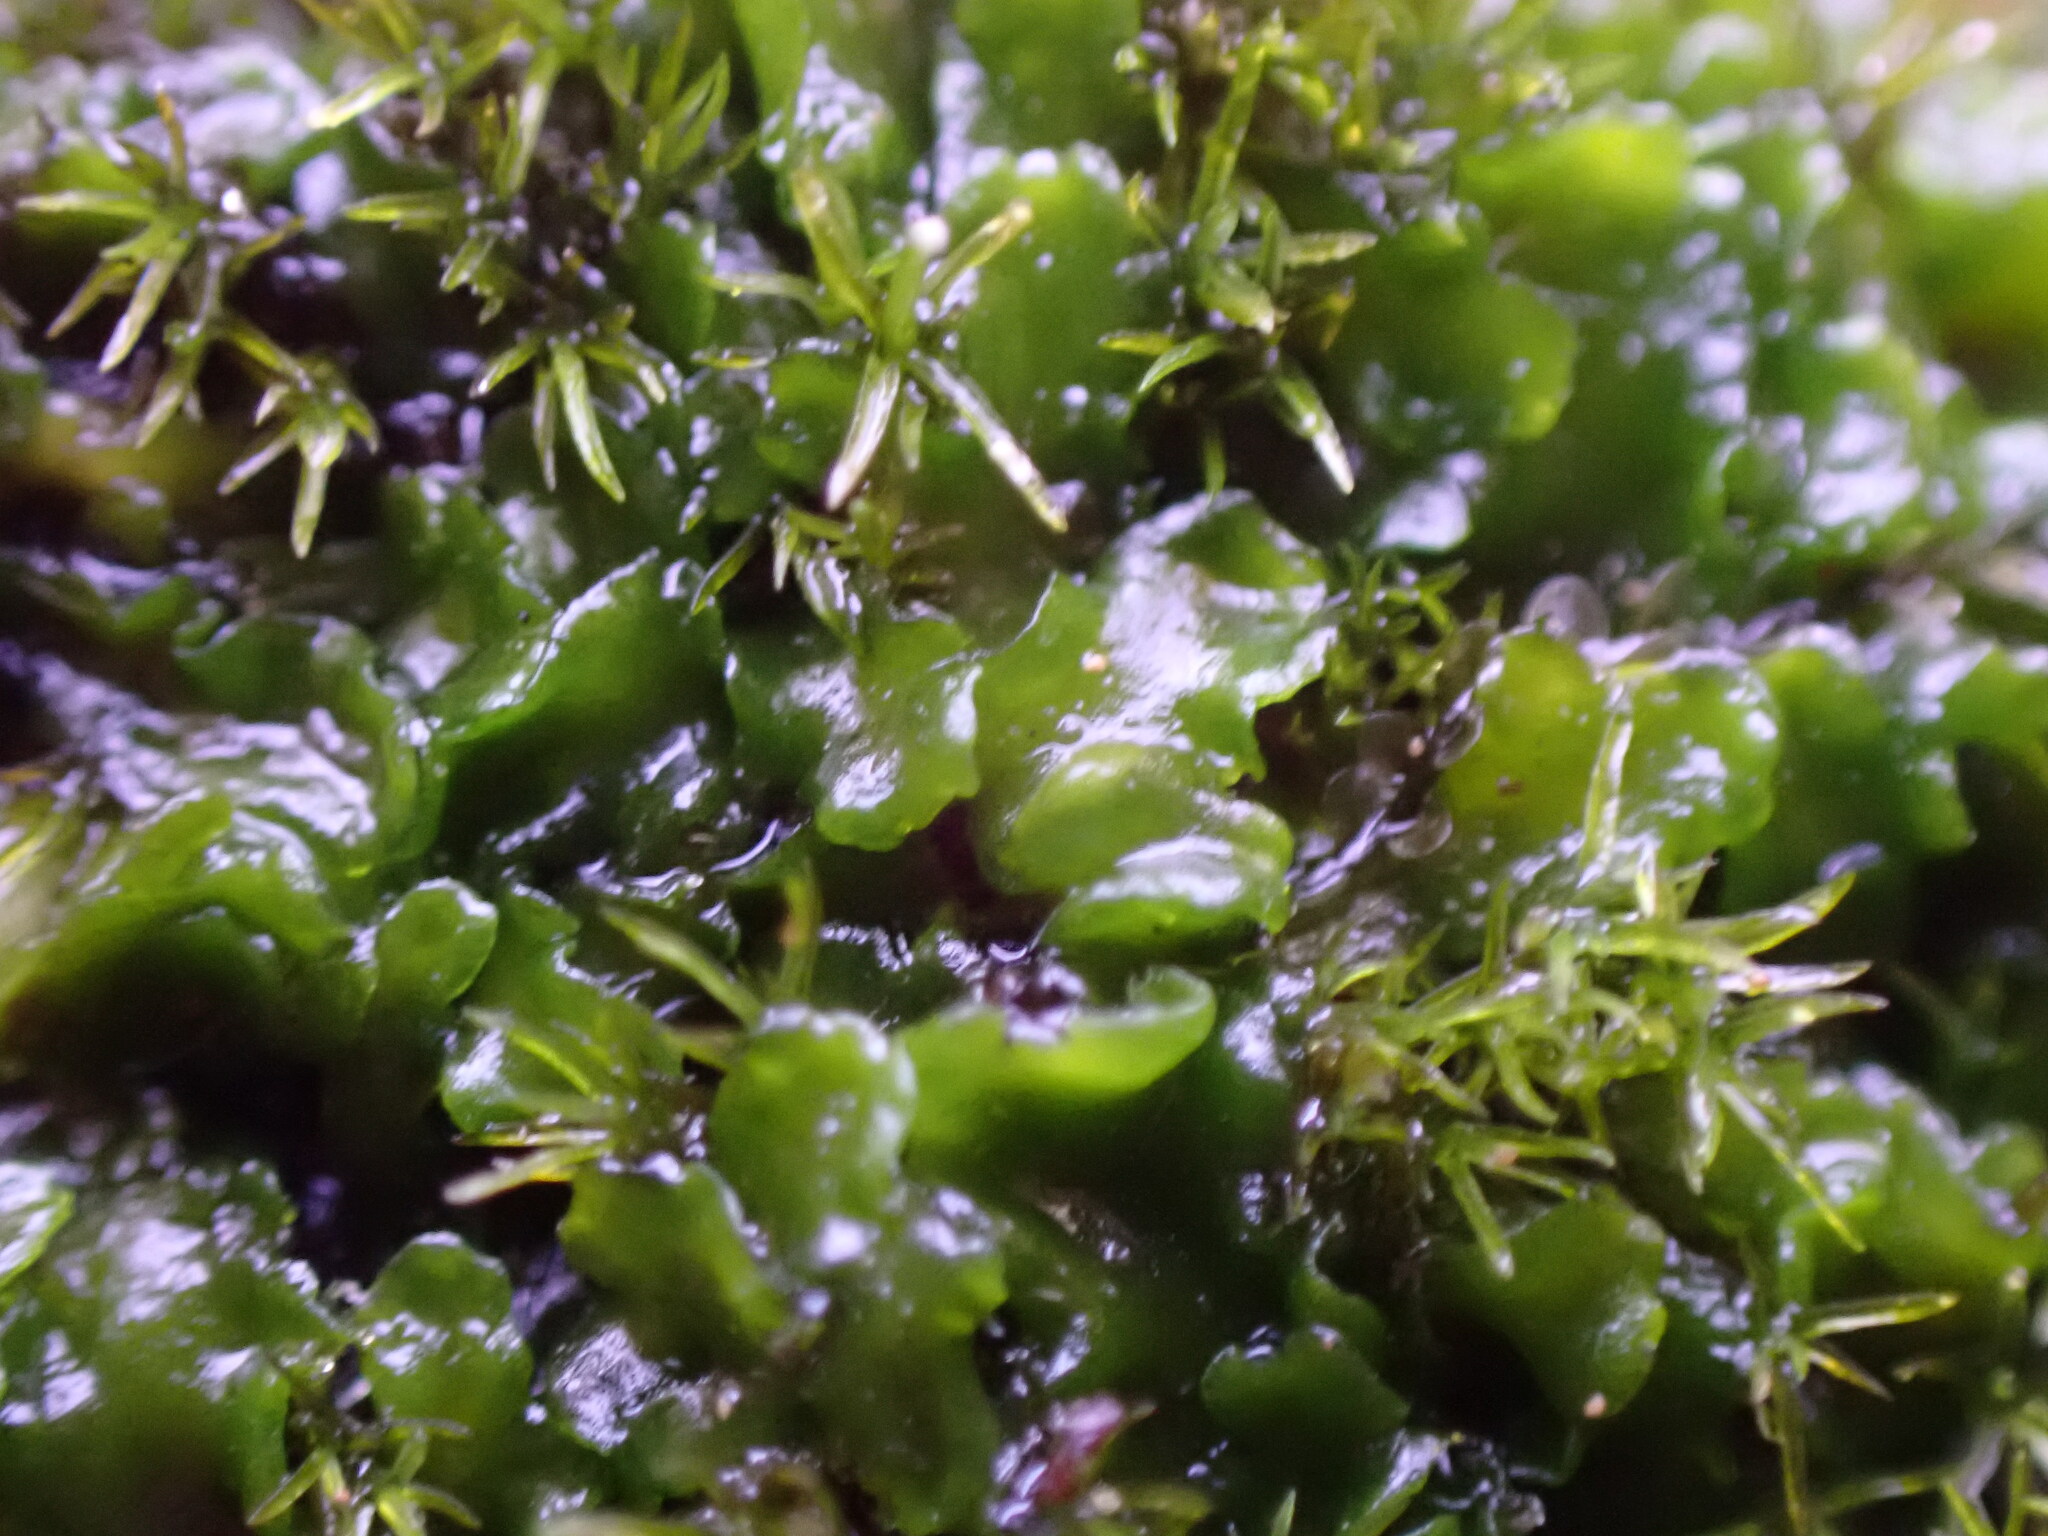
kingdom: Plantae
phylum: Marchantiophyta
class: Jungermanniopsida
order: Metzgeriales
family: Aneuraceae
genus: Aneura
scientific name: Aneura pinguis
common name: Common greasewort
